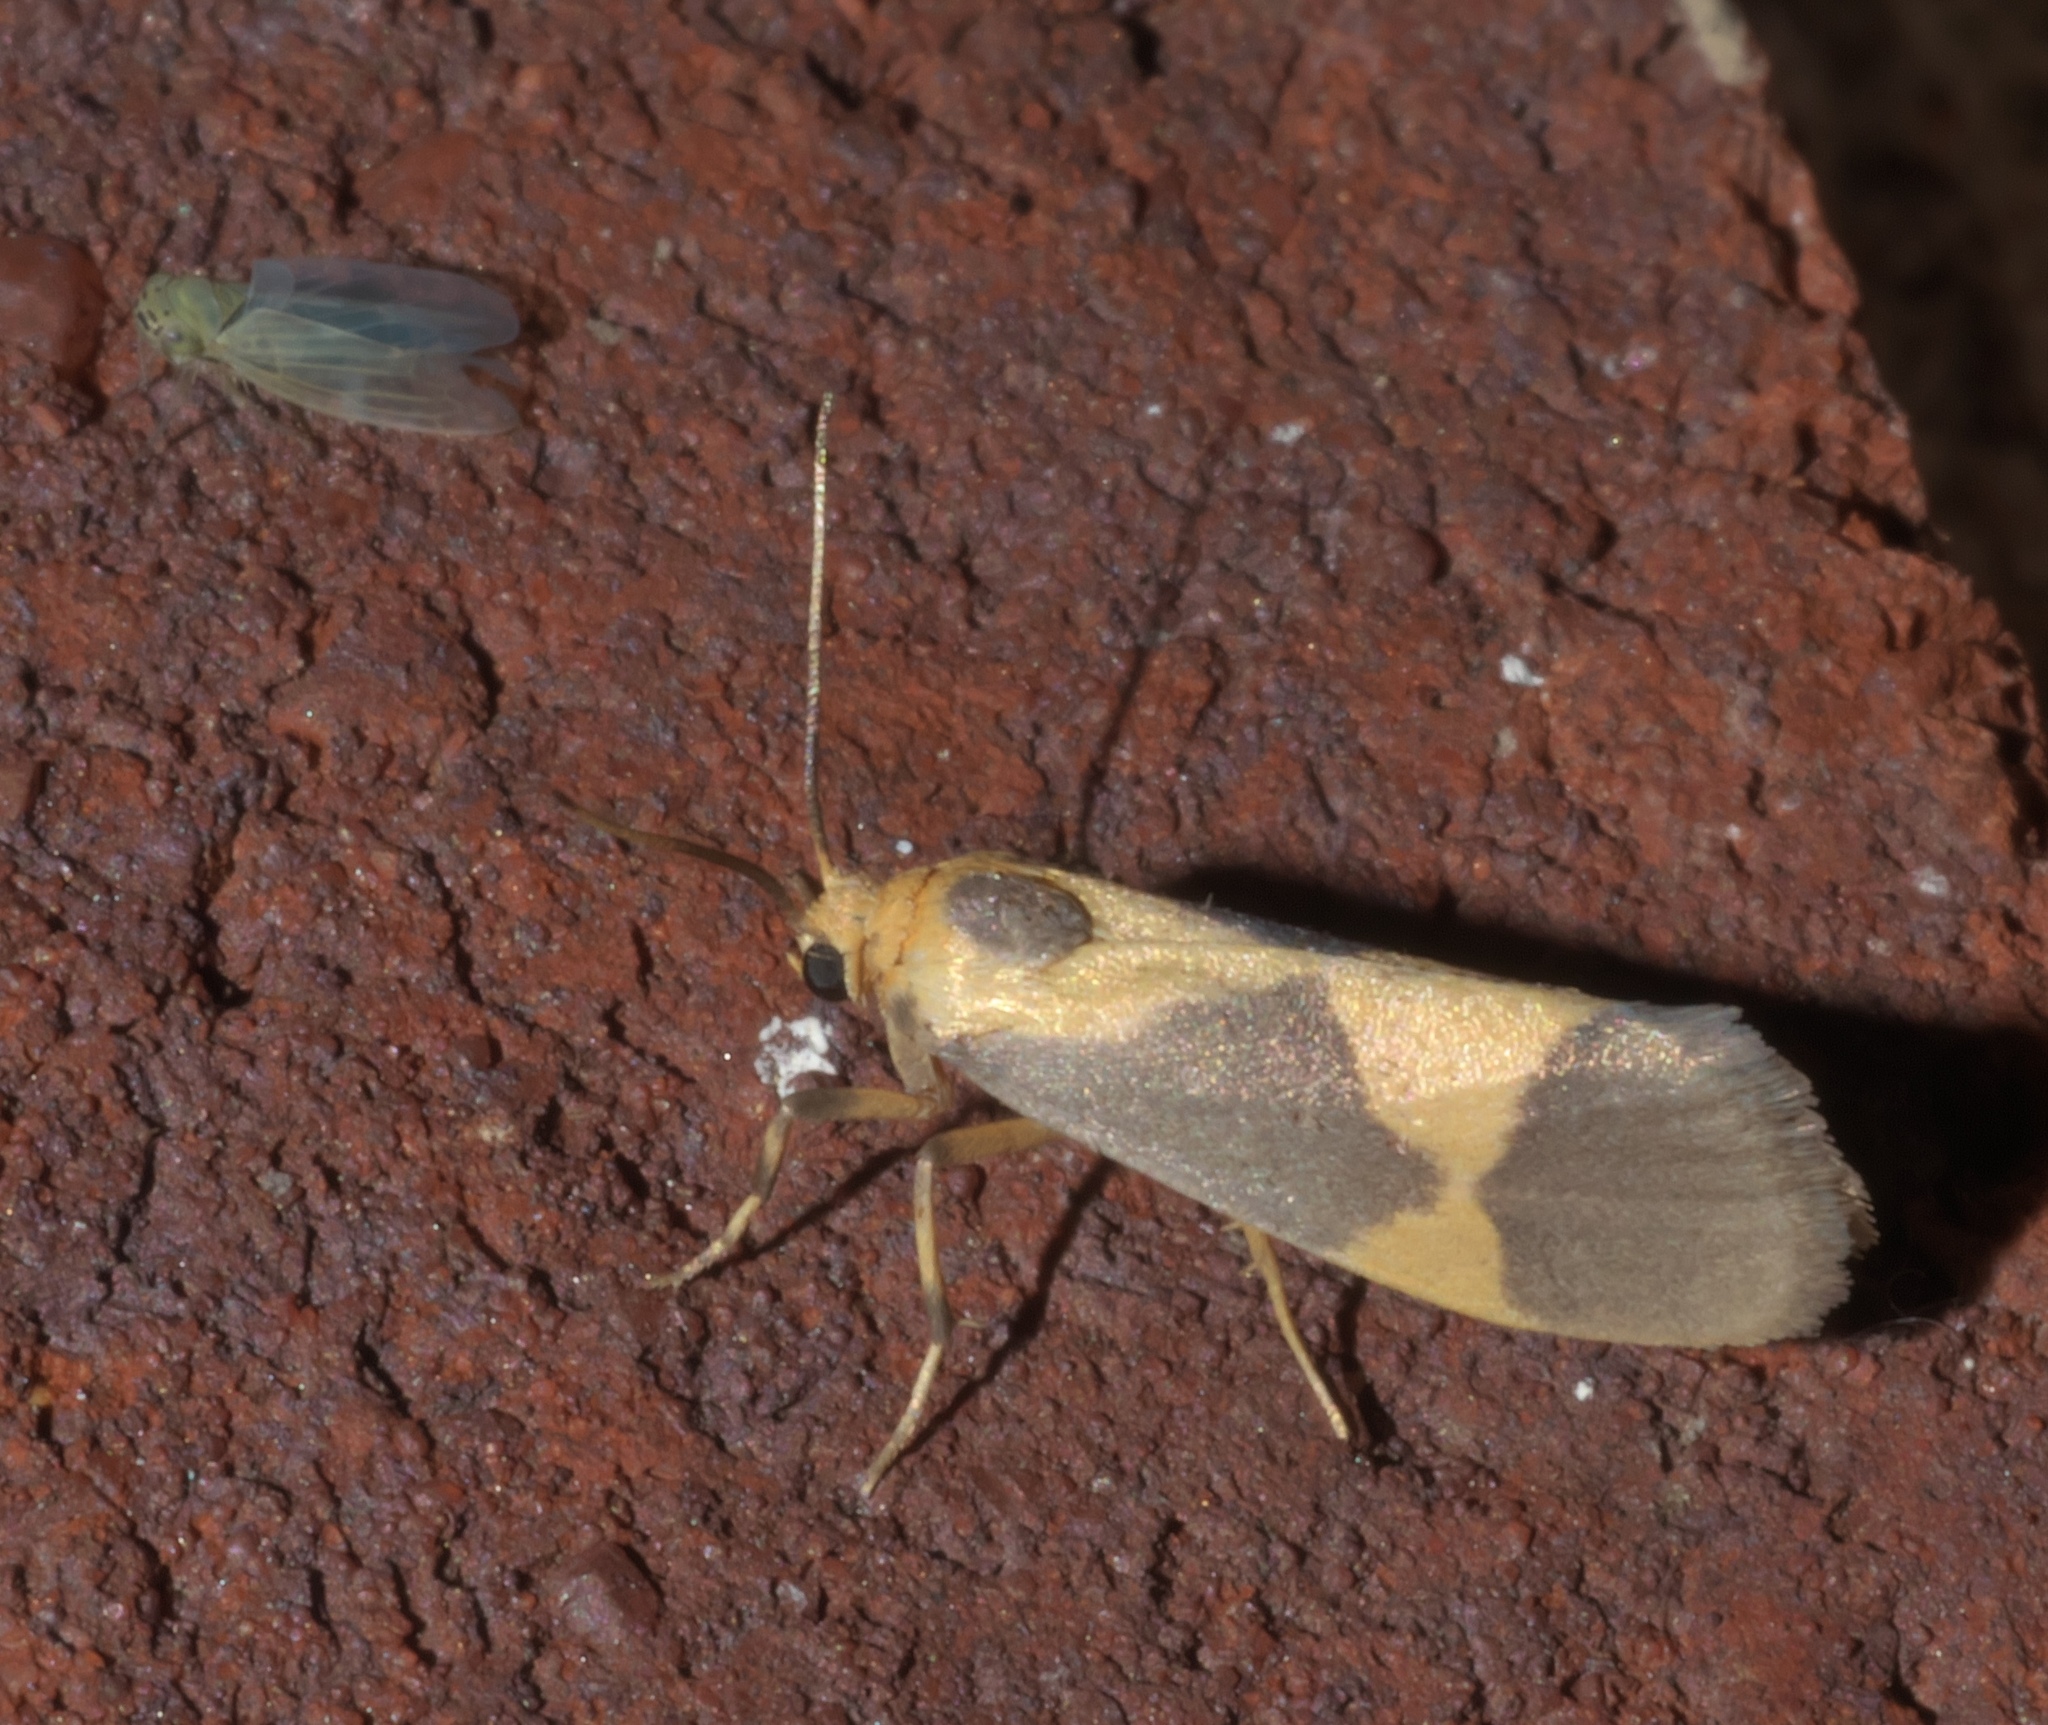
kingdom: Animalia
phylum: Arthropoda
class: Insecta
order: Lepidoptera
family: Erebidae
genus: Cisthene
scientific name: Cisthene unifascia
